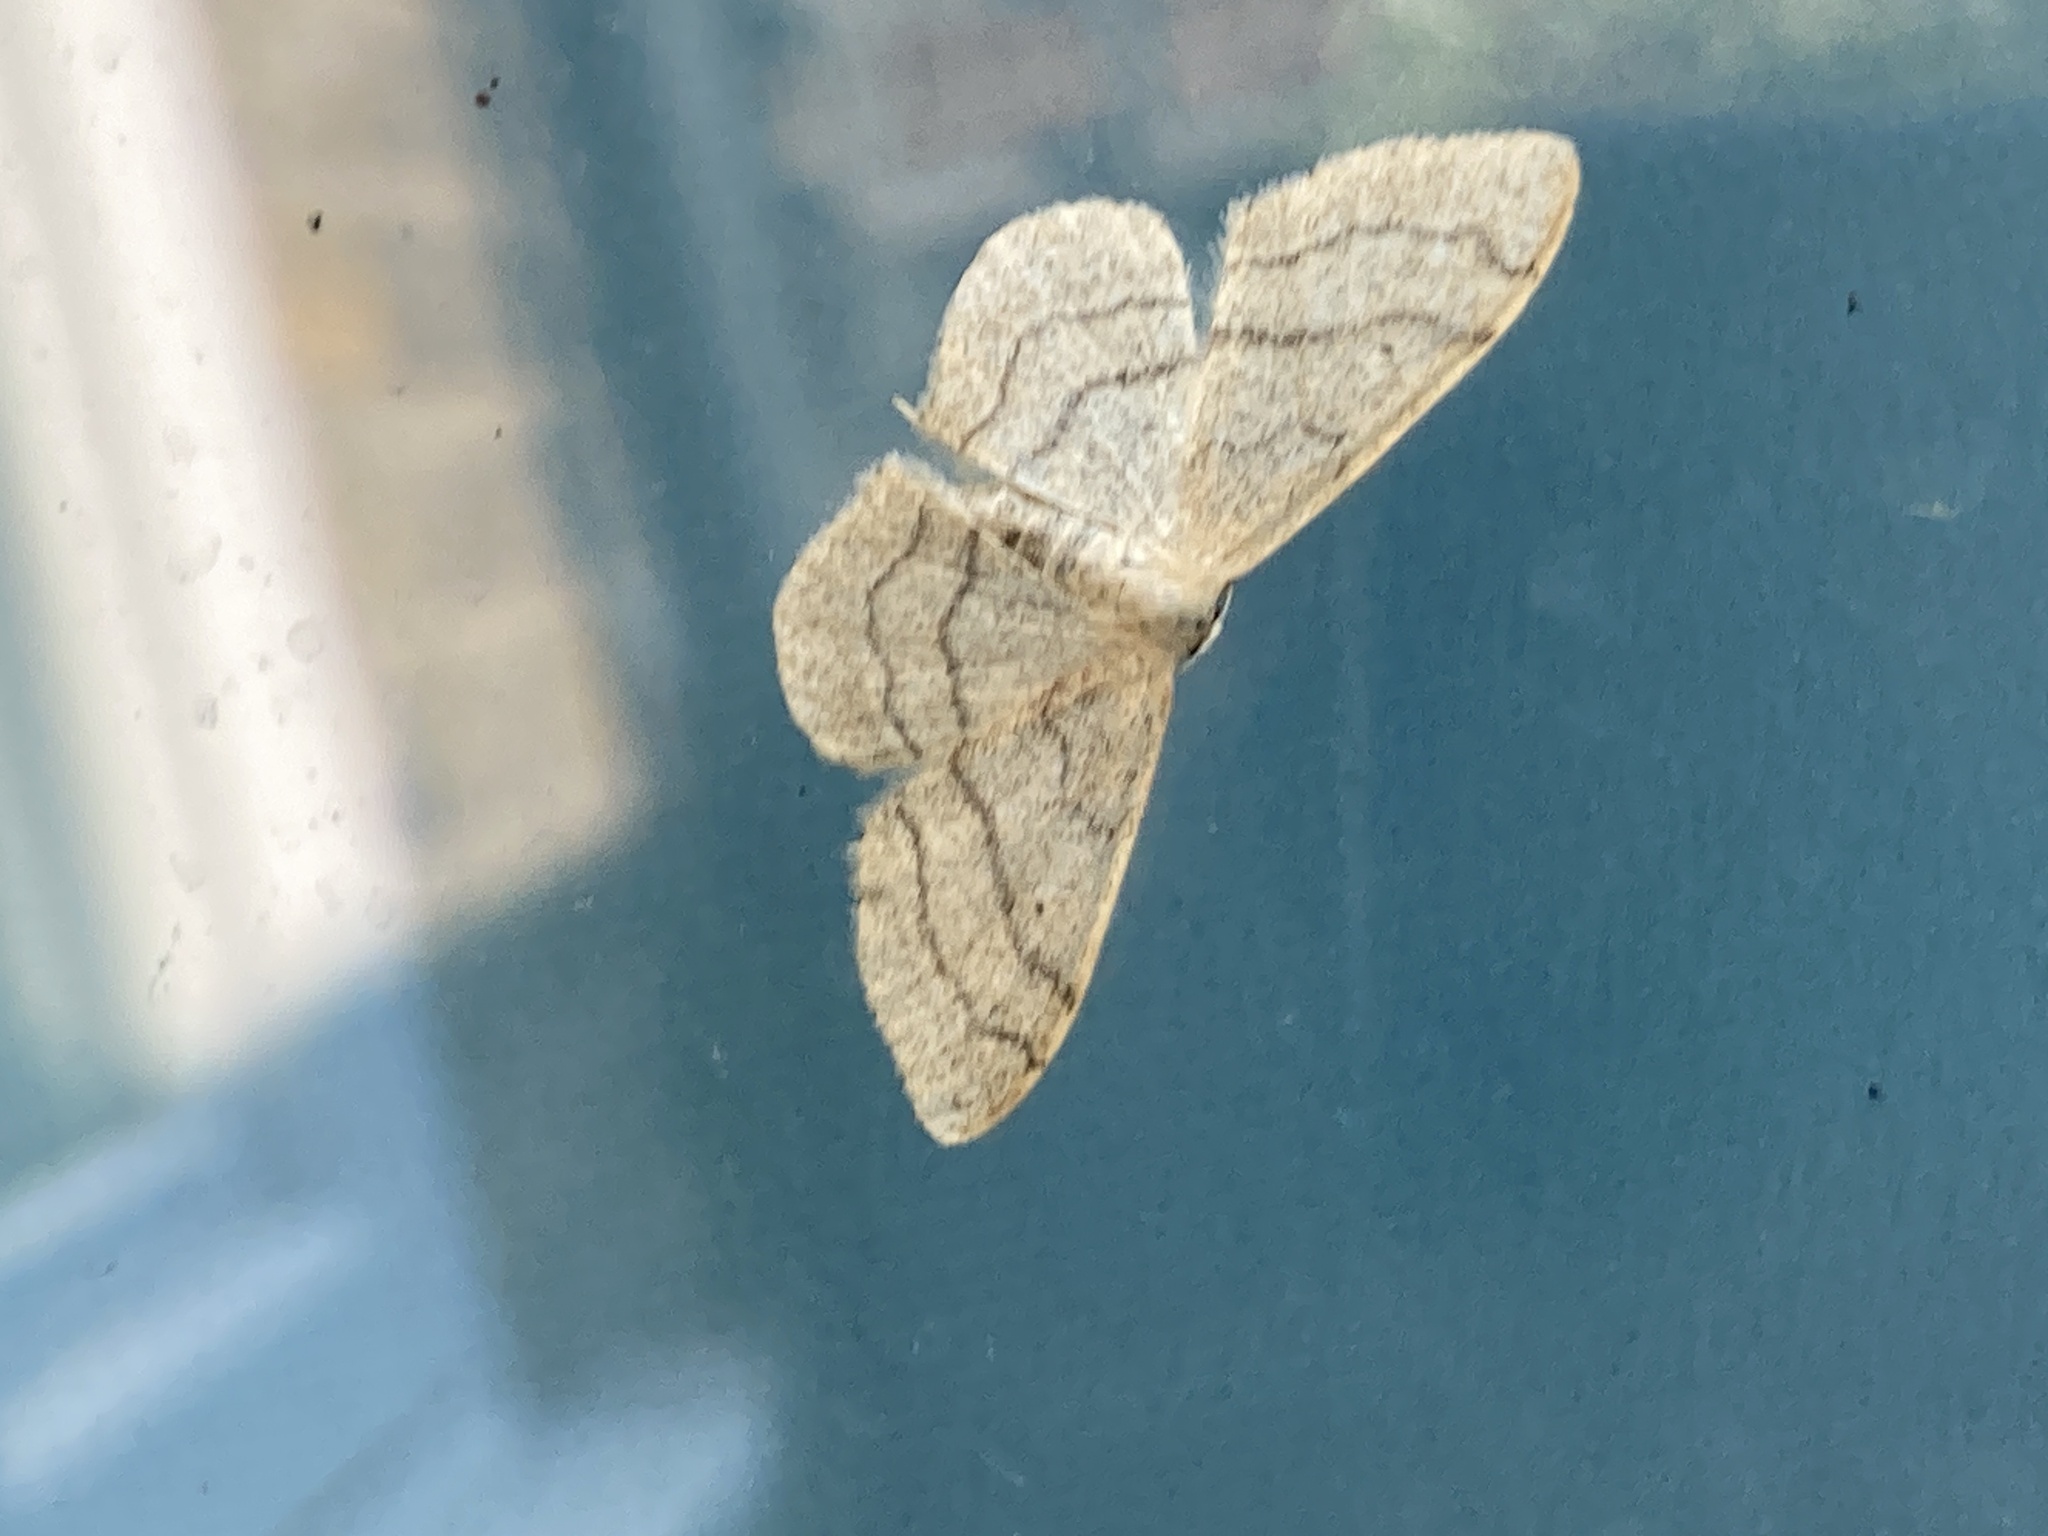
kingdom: Animalia
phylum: Arthropoda
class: Insecta
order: Lepidoptera
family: Geometridae
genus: Idaea
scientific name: Idaea aversata
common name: Riband wave
